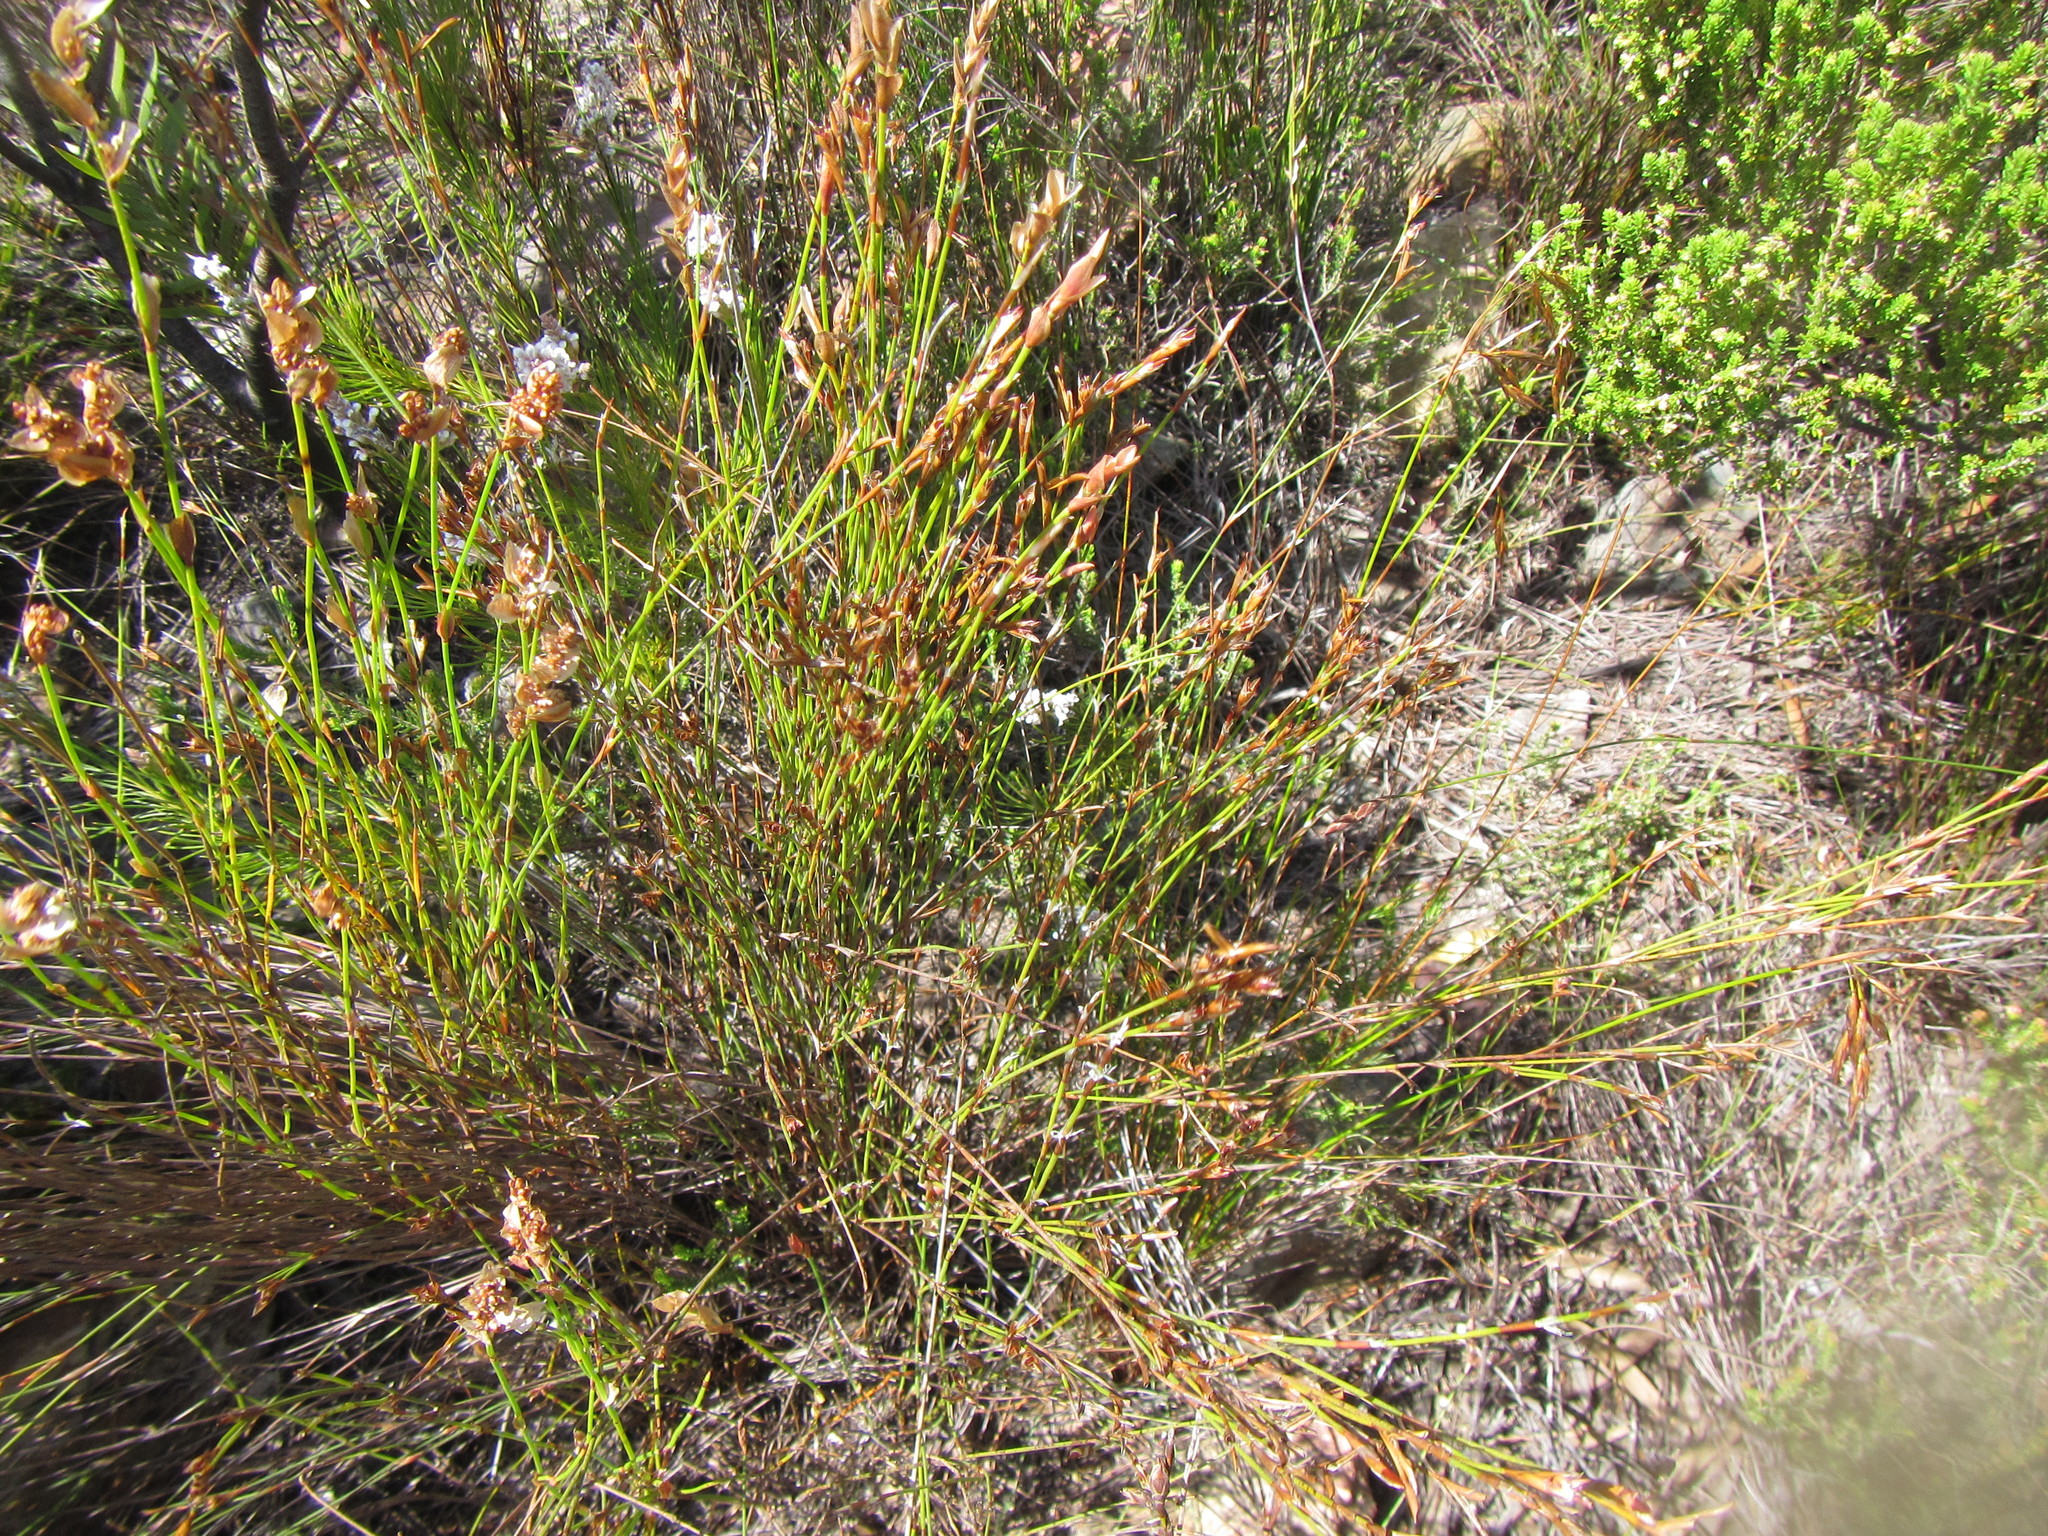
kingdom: Plantae
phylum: Tracheophyta
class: Liliopsida
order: Poales
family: Restionaceae
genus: Restio
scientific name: Restio hyalinus
